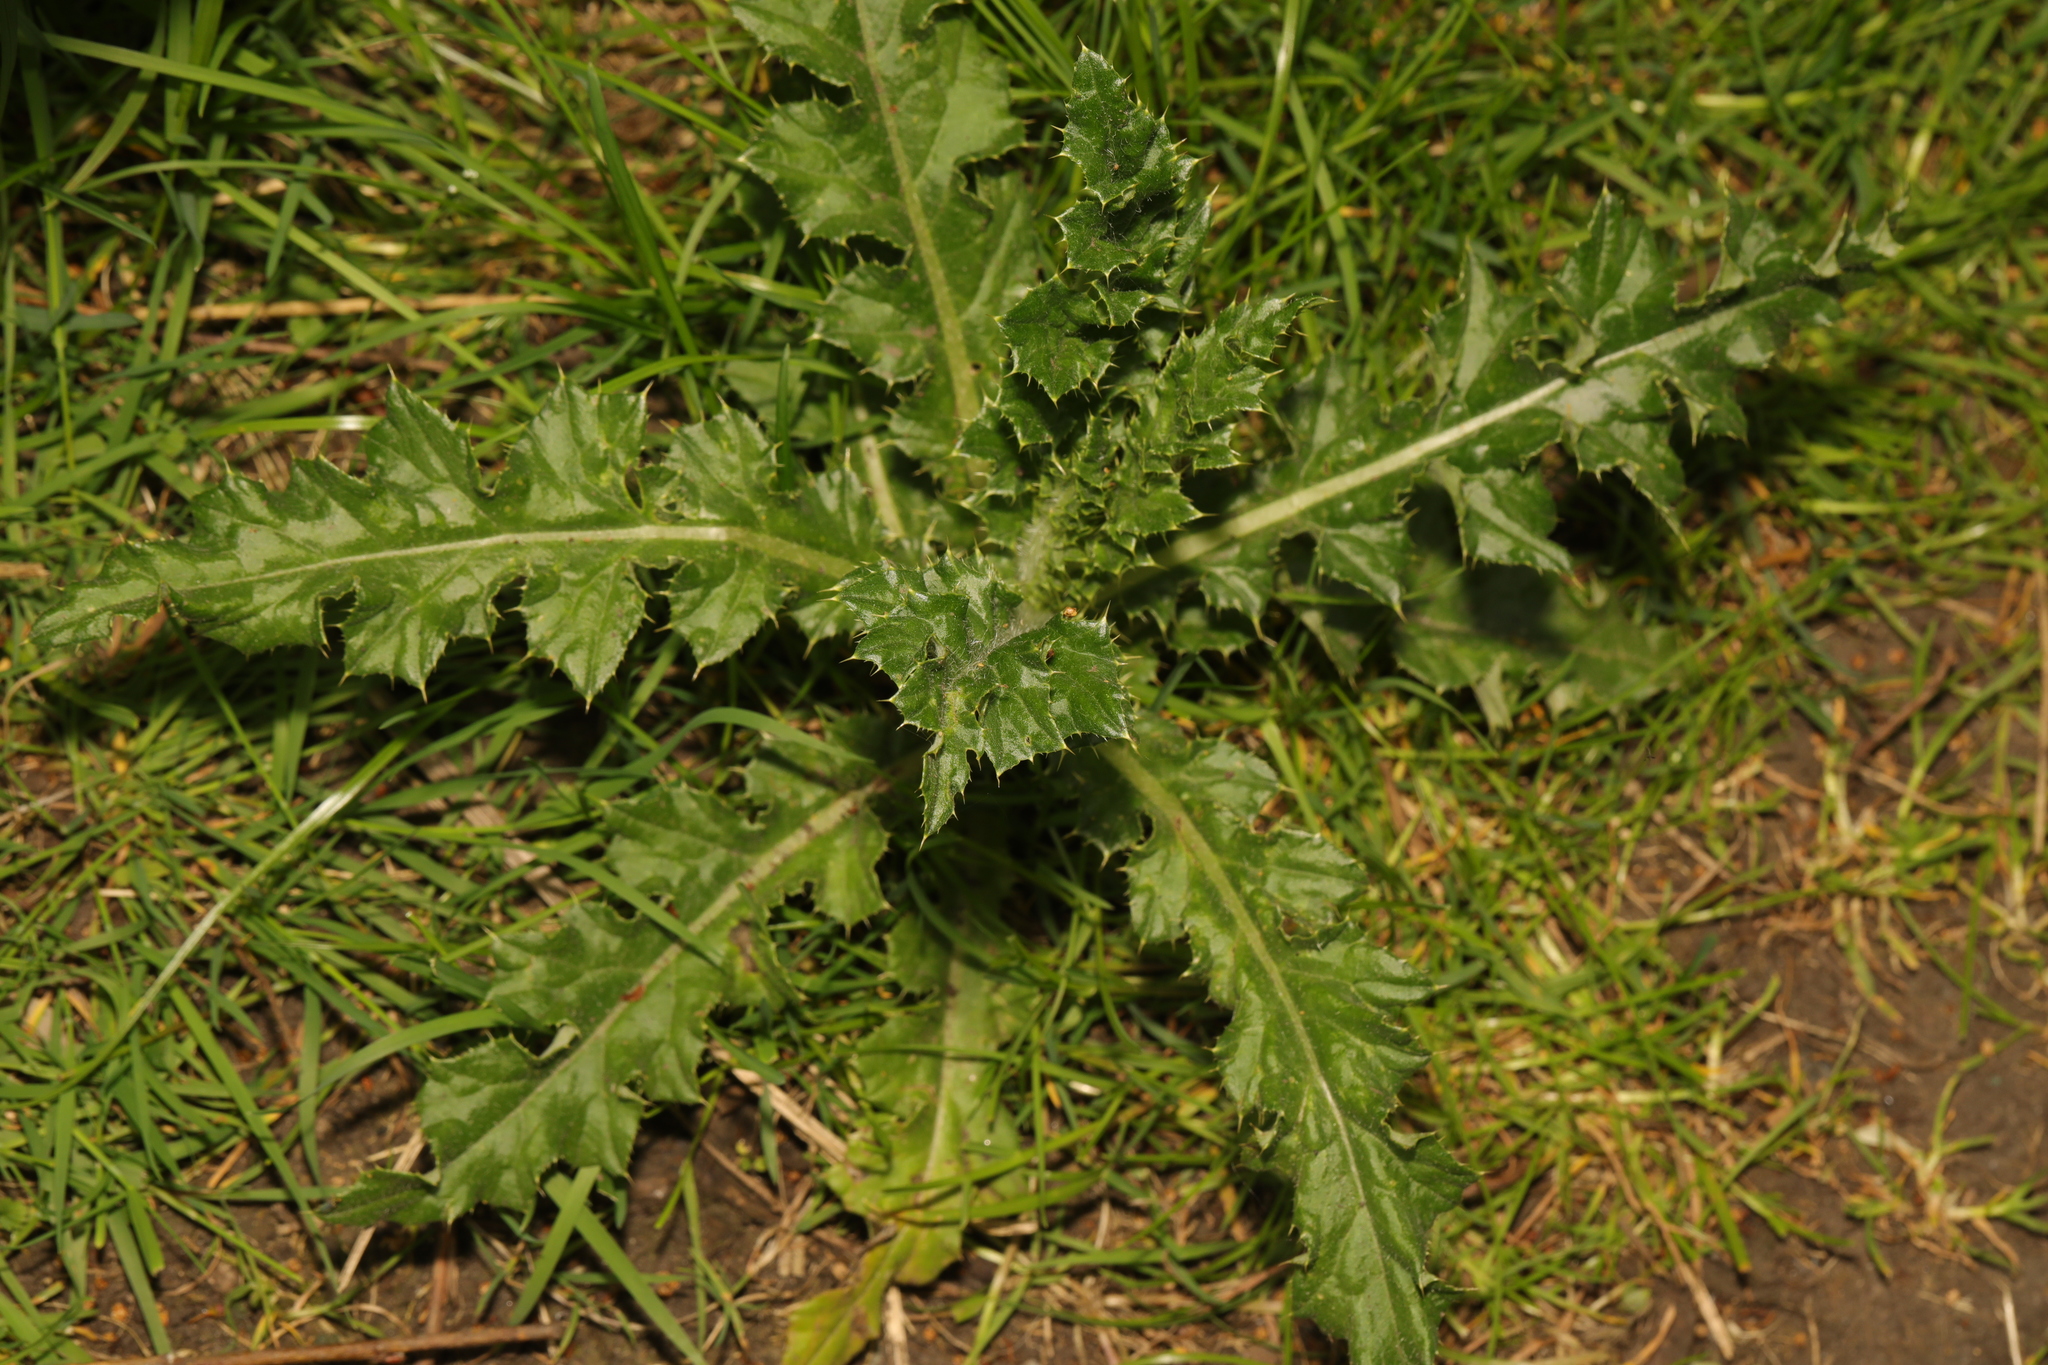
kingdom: Plantae
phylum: Tracheophyta
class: Magnoliopsida
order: Asterales
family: Asteraceae
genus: Cirsium
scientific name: Cirsium arvense
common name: Creeping thistle
